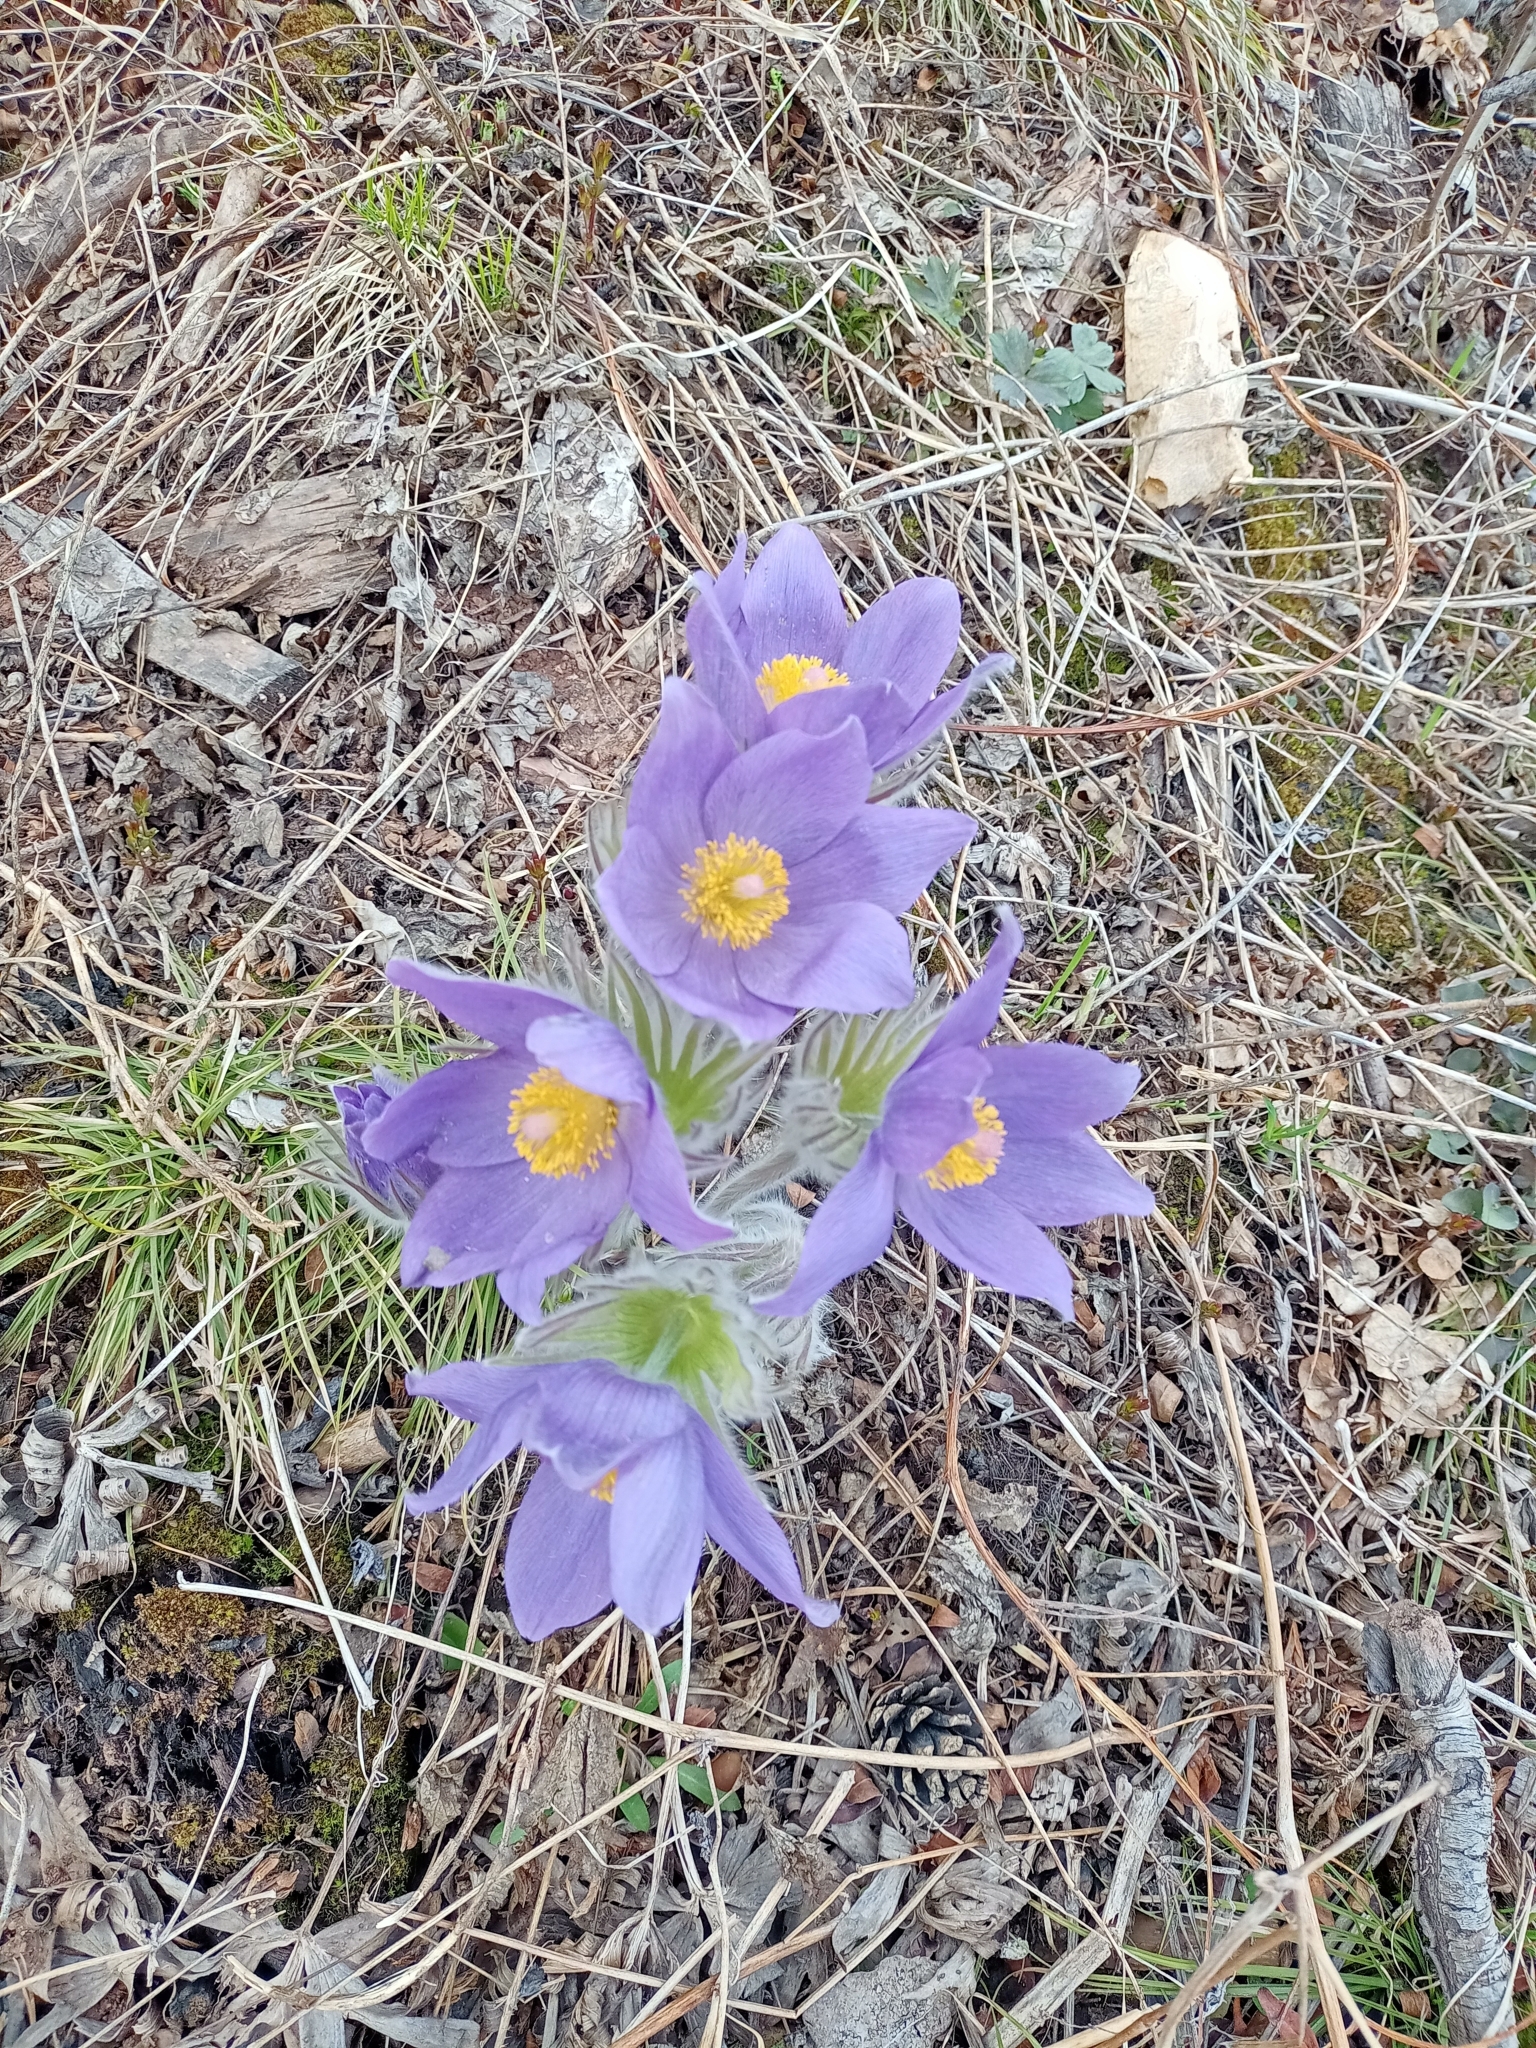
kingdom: Plantae
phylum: Tracheophyta
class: Magnoliopsida
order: Ranunculales
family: Ranunculaceae
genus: Pulsatilla
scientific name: Pulsatilla patens
